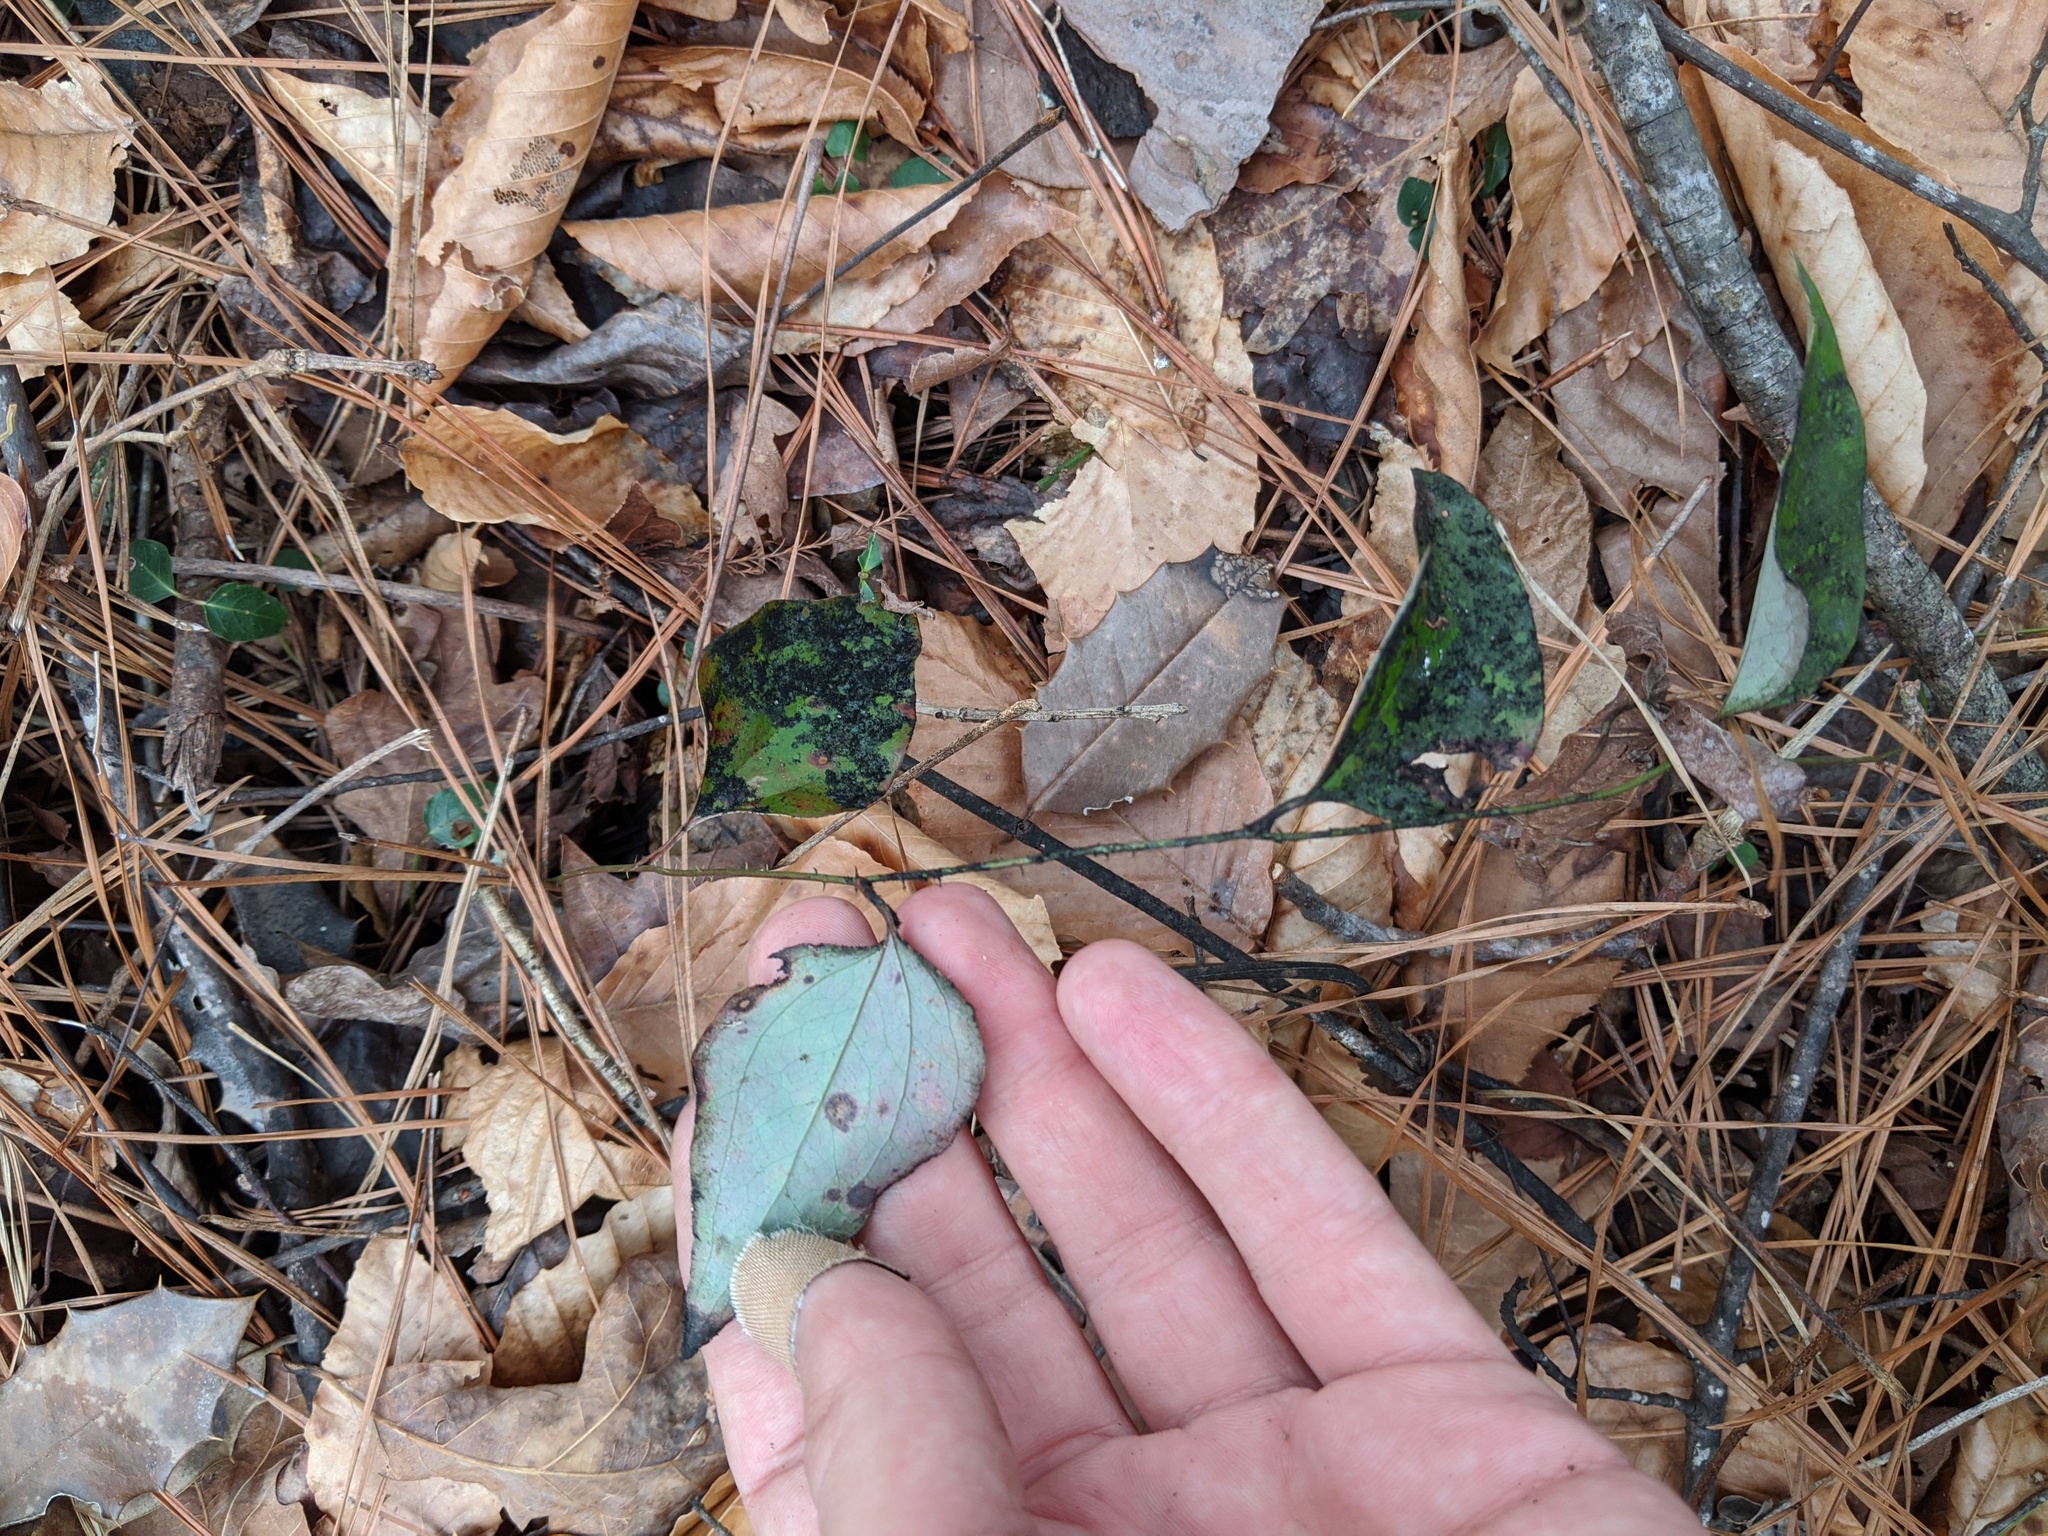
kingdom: Plantae
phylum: Tracheophyta
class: Liliopsida
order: Liliales
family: Smilacaceae
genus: Smilax
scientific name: Smilax glauca
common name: Cat greenbrier
